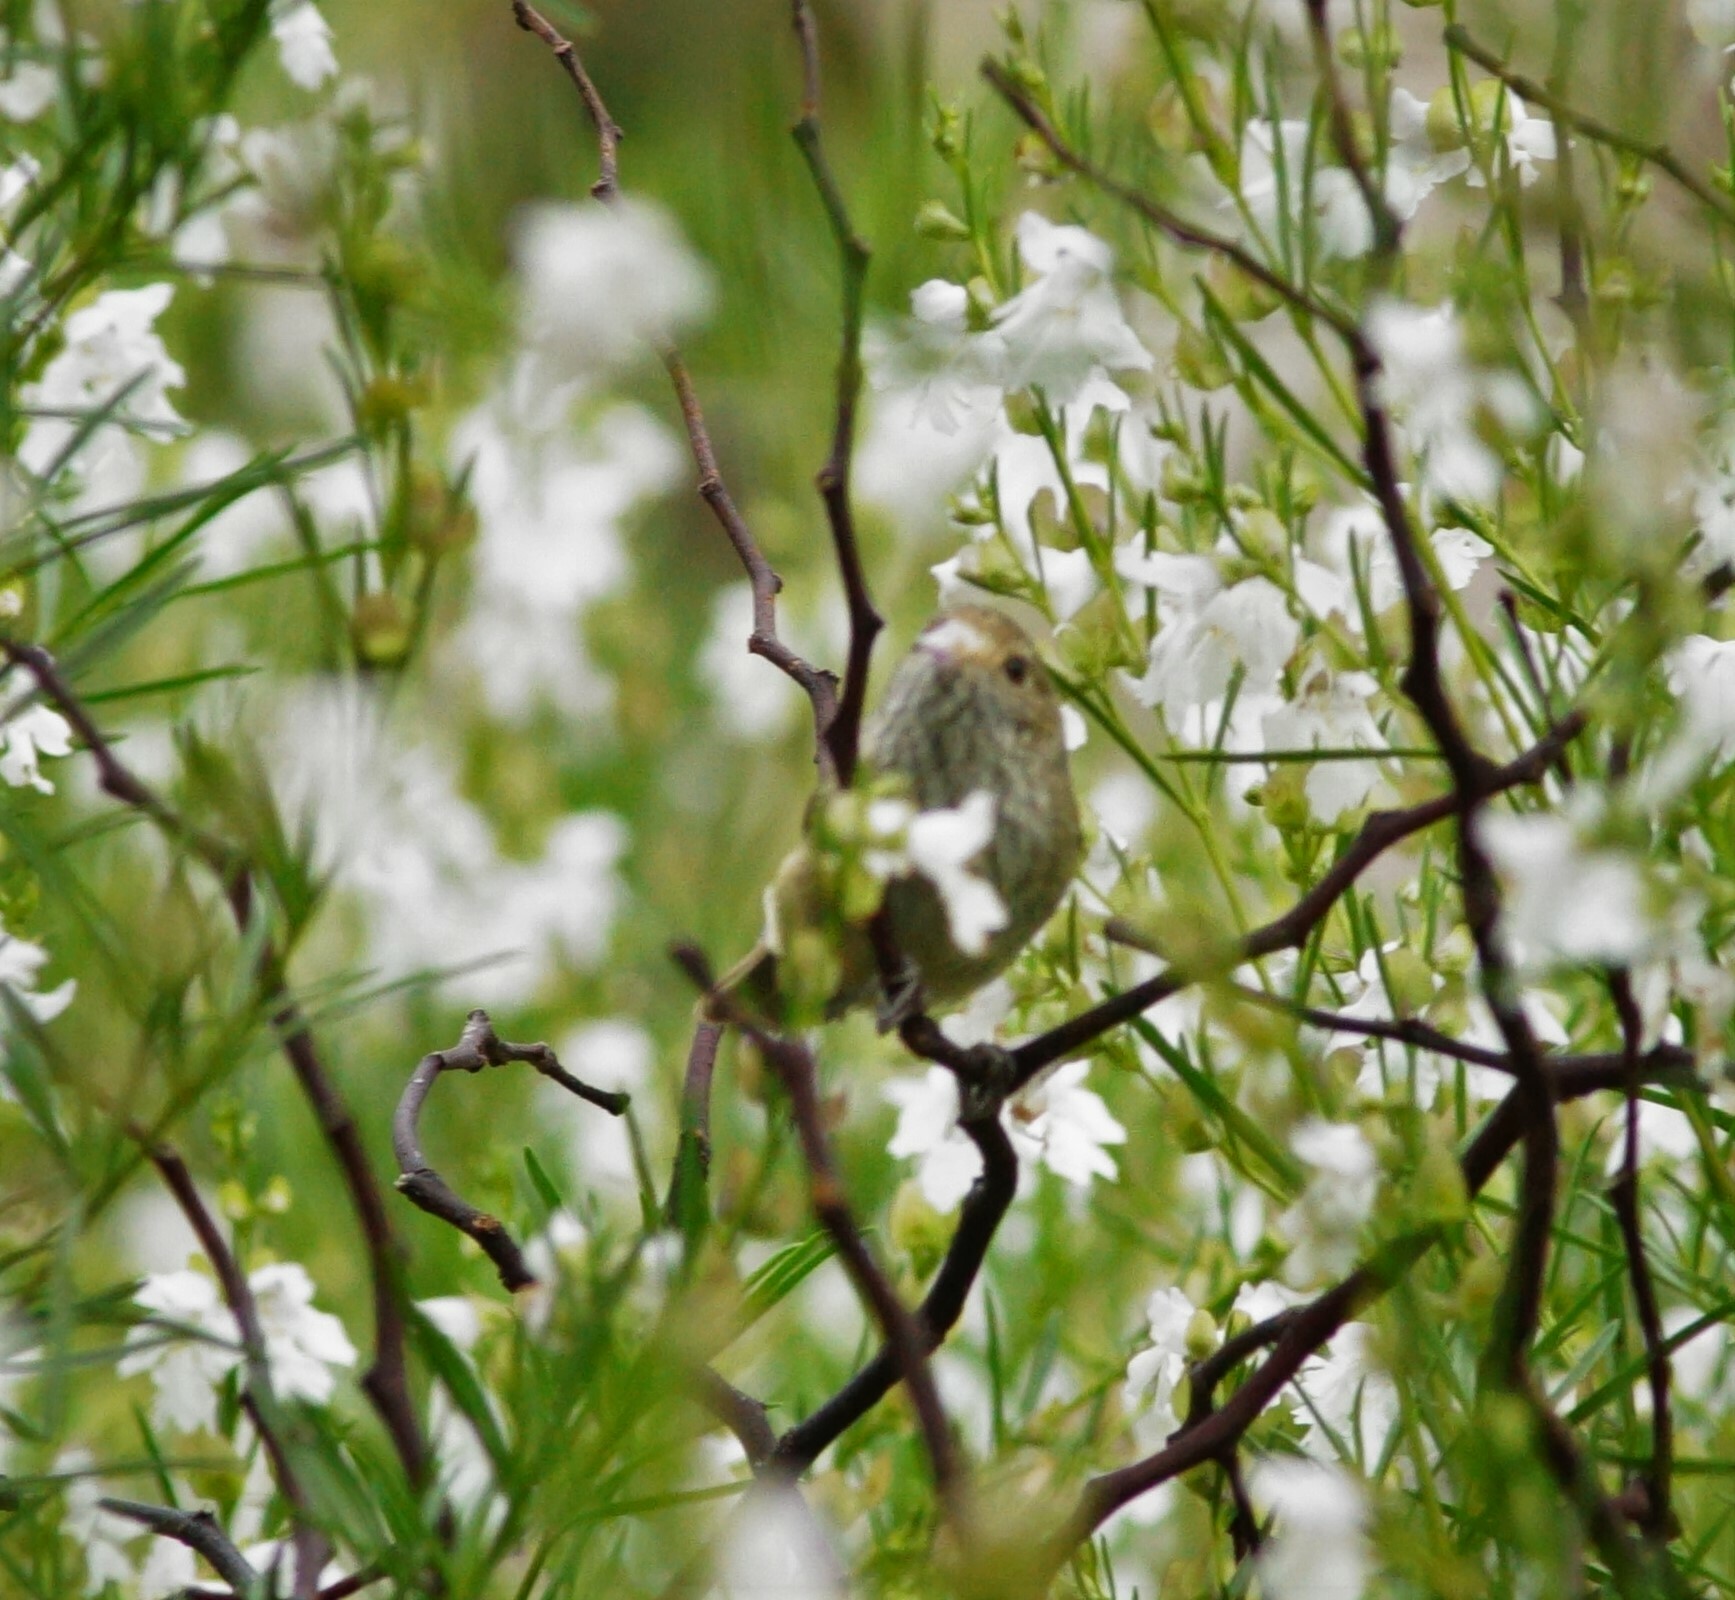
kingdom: Animalia
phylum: Chordata
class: Aves
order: Passeriformes
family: Acanthizidae
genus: Acanthiza
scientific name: Acanthiza pusilla
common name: Brown thornbill
